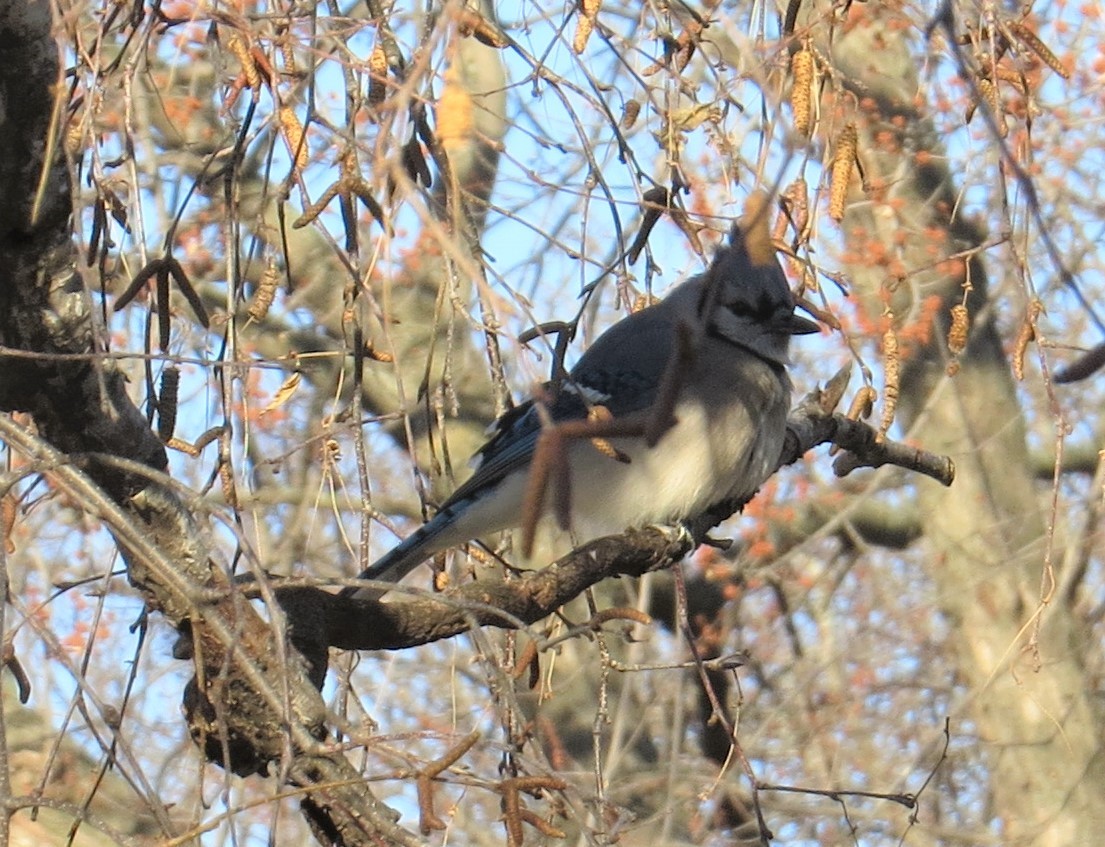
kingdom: Animalia
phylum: Chordata
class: Aves
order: Passeriformes
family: Corvidae
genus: Cyanocitta
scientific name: Cyanocitta cristata
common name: Blue jay
